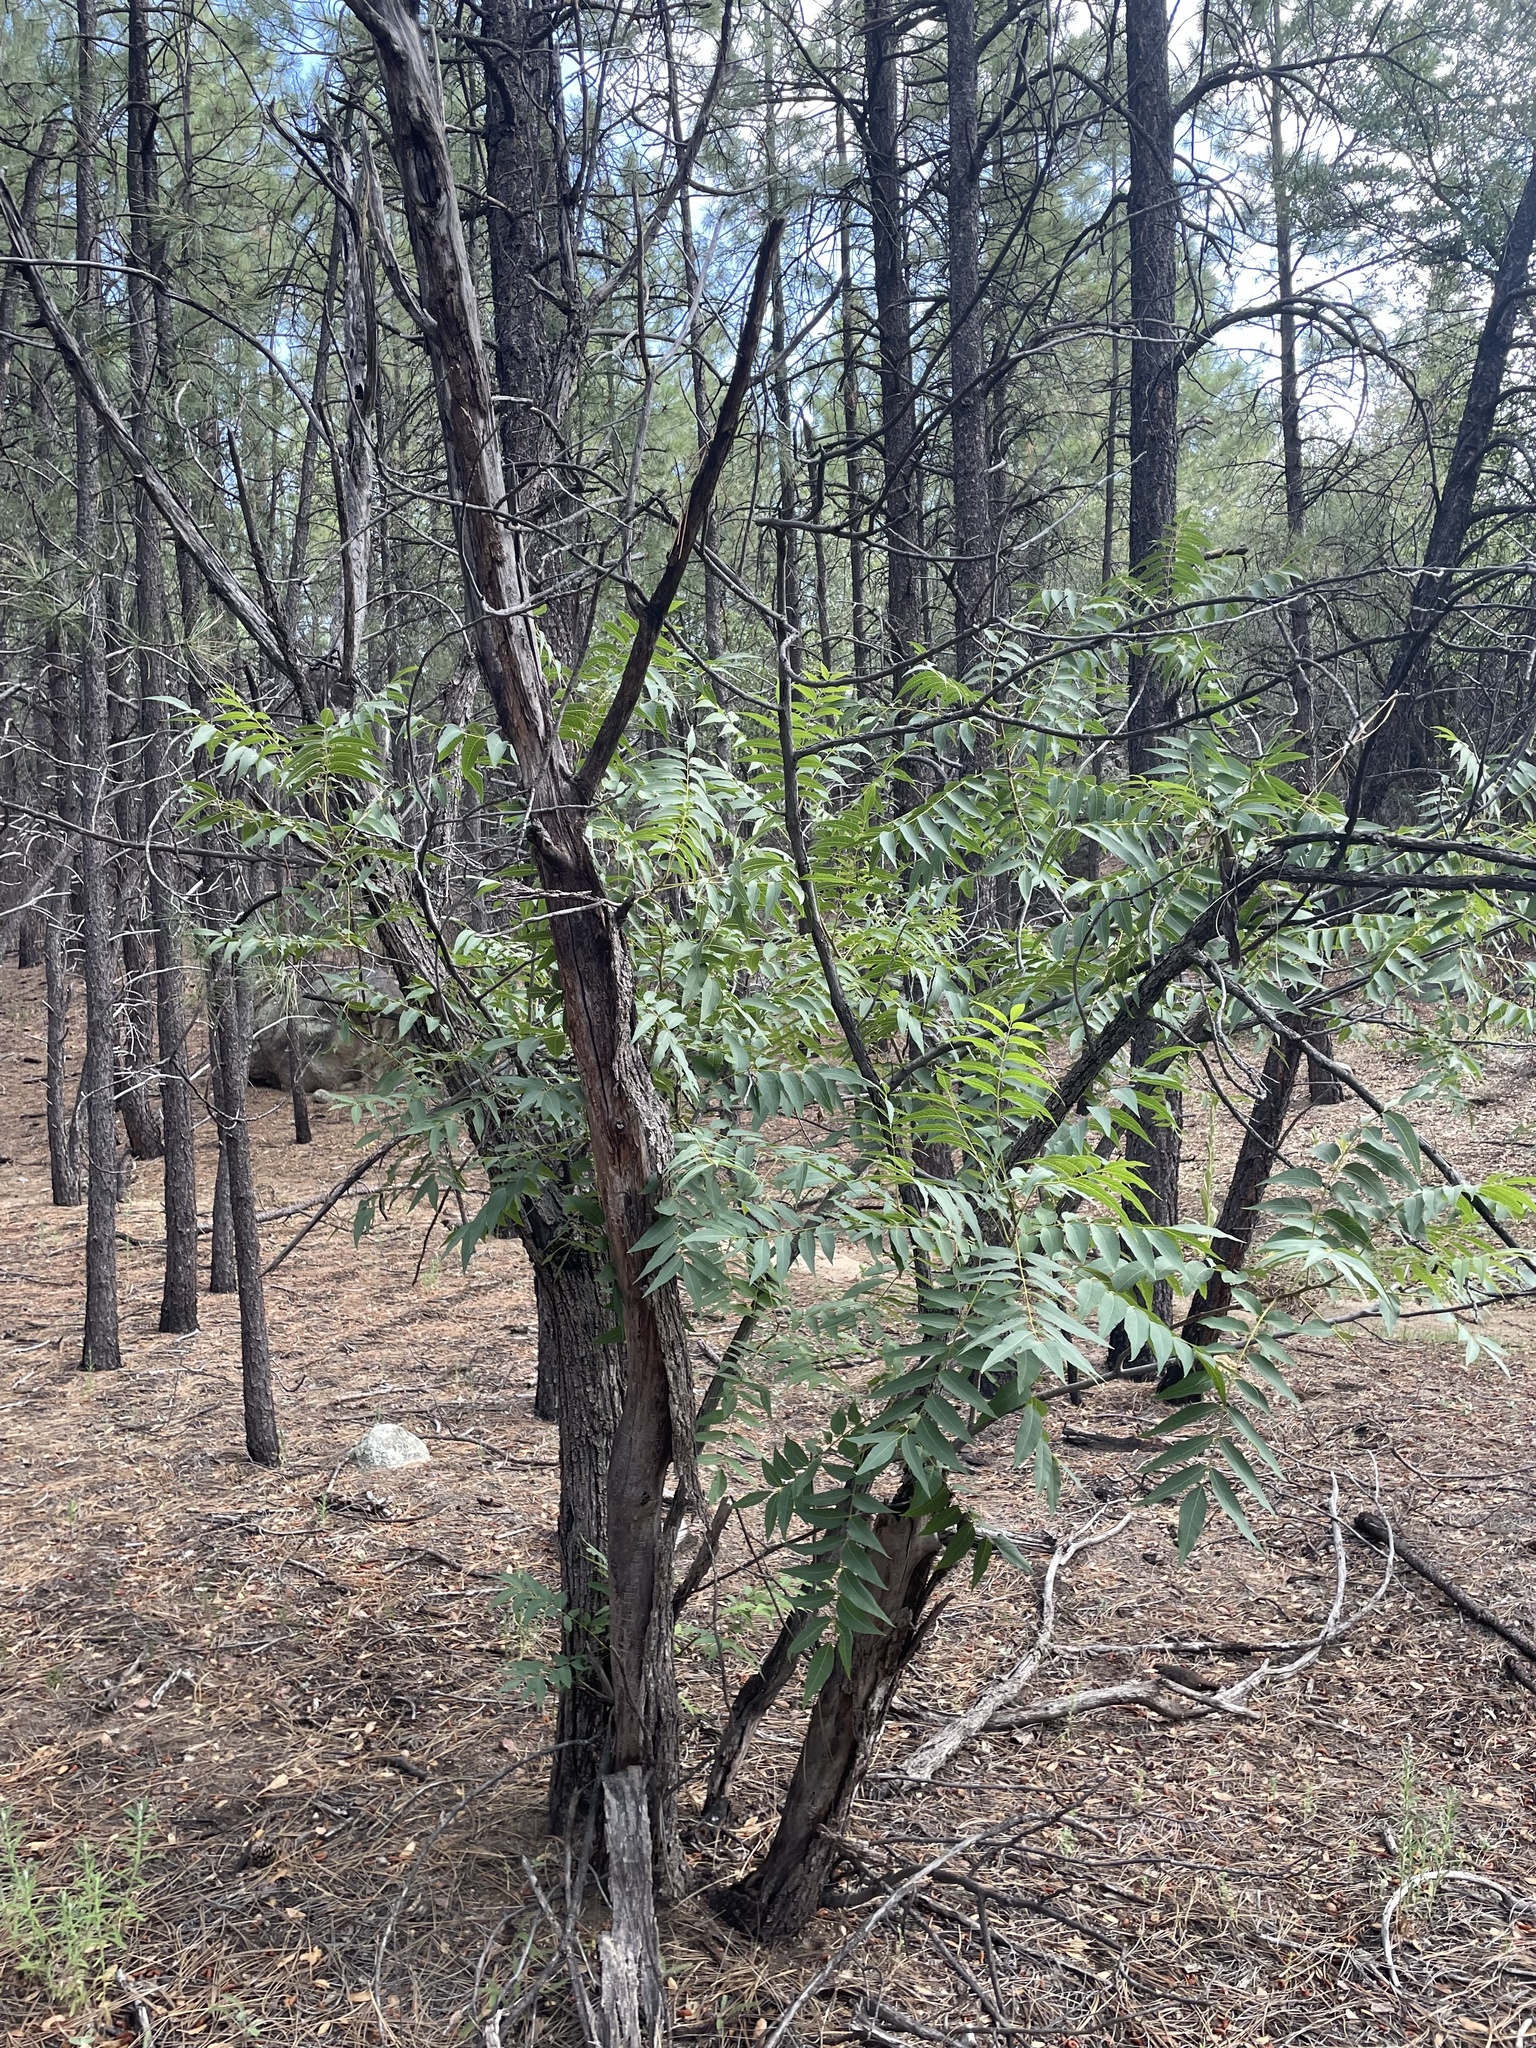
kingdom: Plantae
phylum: Tracheophyta
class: Magnoliopsida
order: Fagales
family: Juglandaceae
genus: Juglans
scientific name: Juglans major
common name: Arizona walnut
